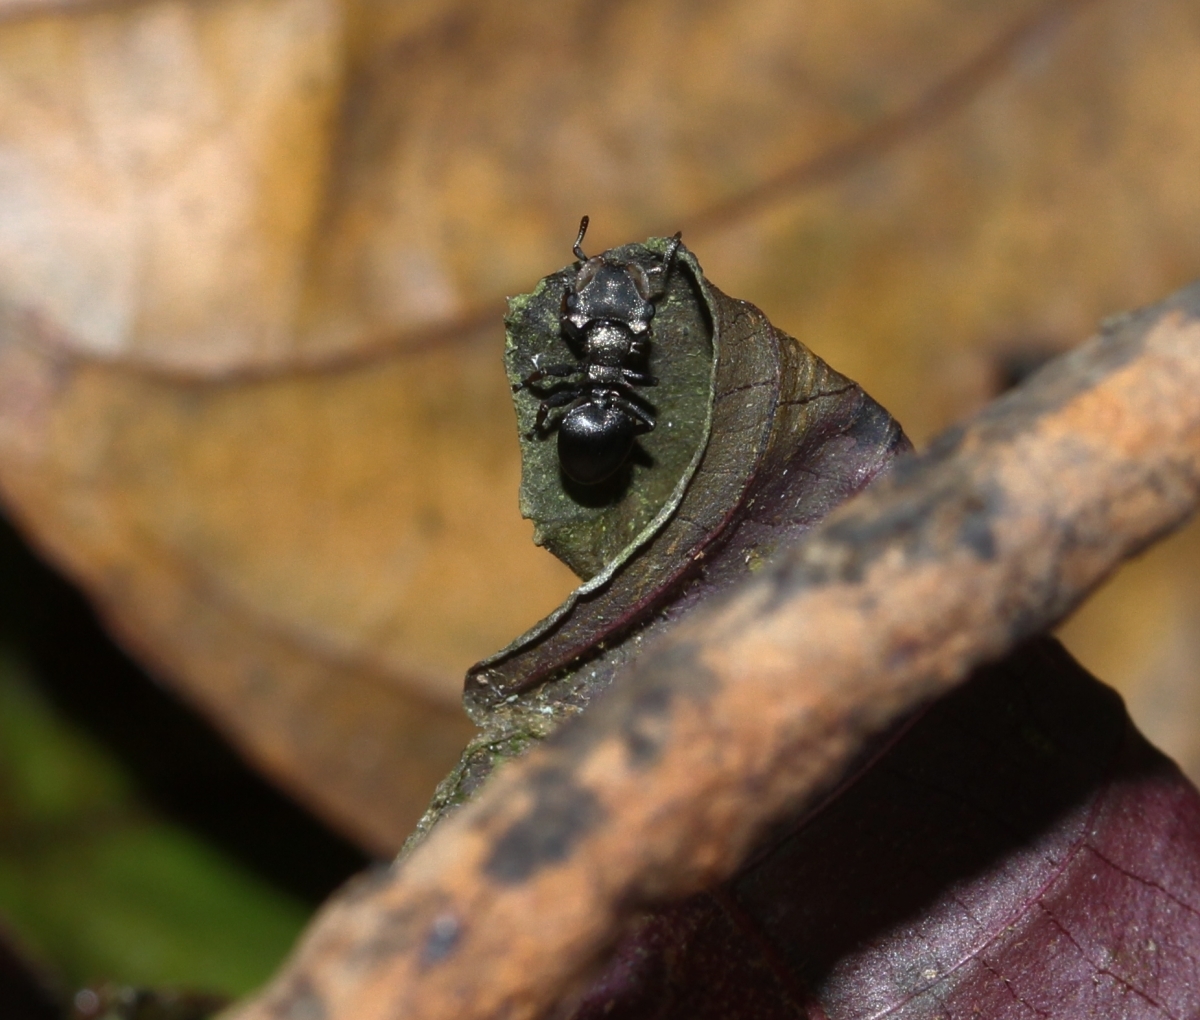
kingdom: Animalia
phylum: Arthropoda
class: Insecta
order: Hymenoptera
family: Formicidae
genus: Cephalotes
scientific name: Cephalotes
